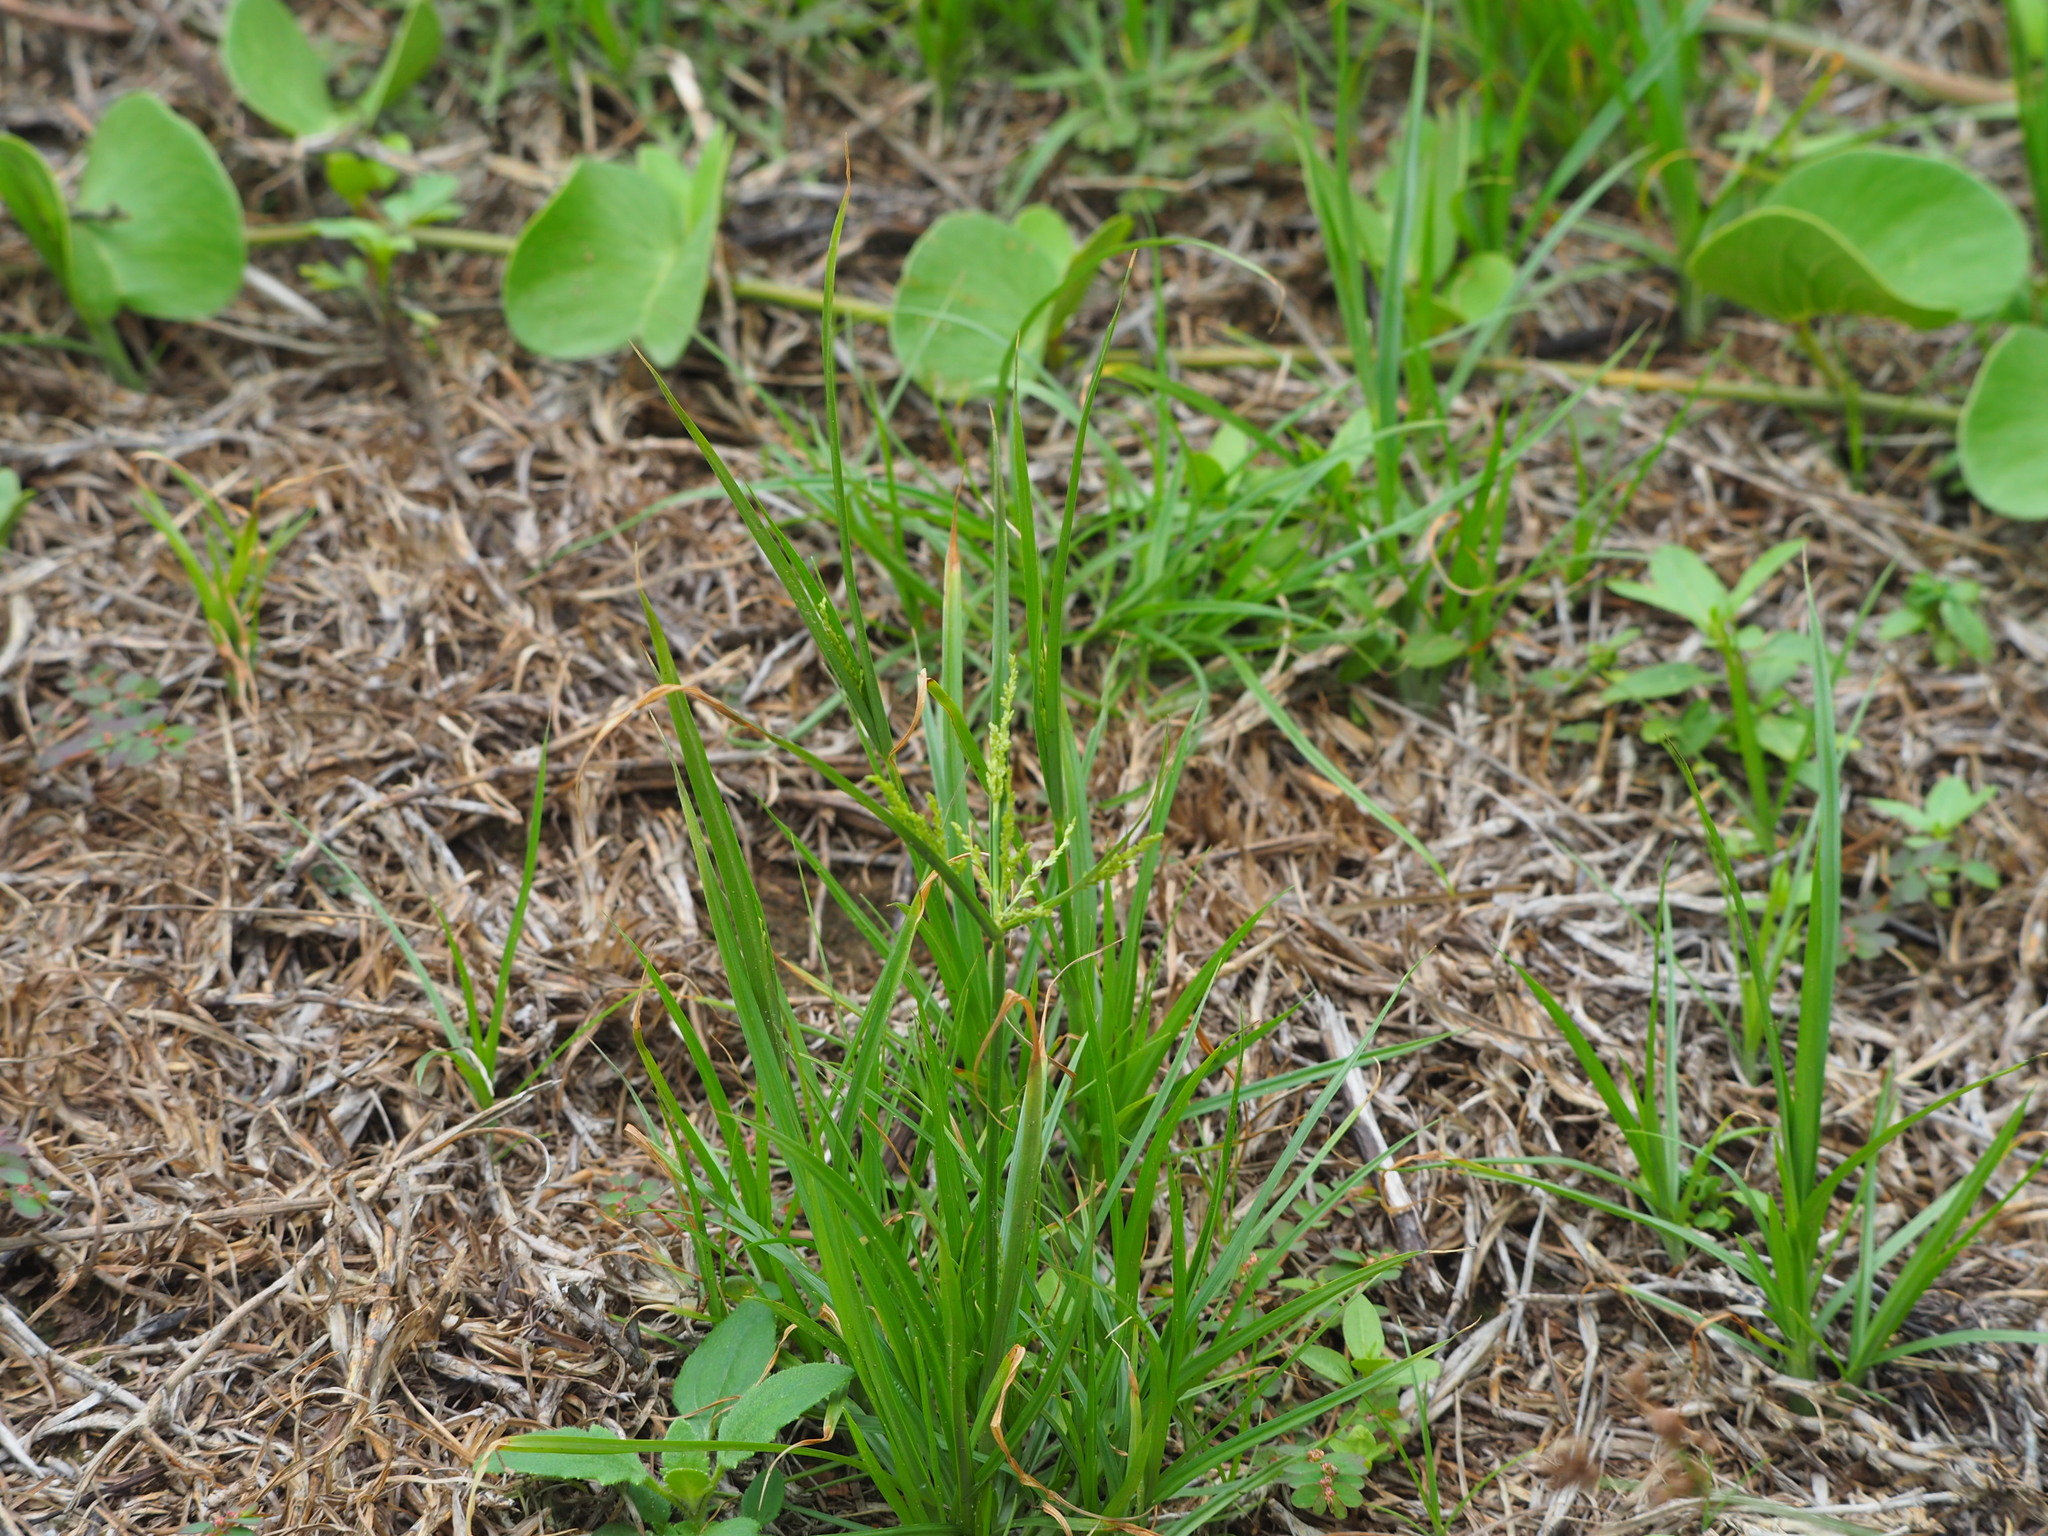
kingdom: Plantae
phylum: Tracheophyta
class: Liliopsida
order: Poales
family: Cyperaceae
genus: Cyperus
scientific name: Cyperus iria
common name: Ricefield flatsedge
